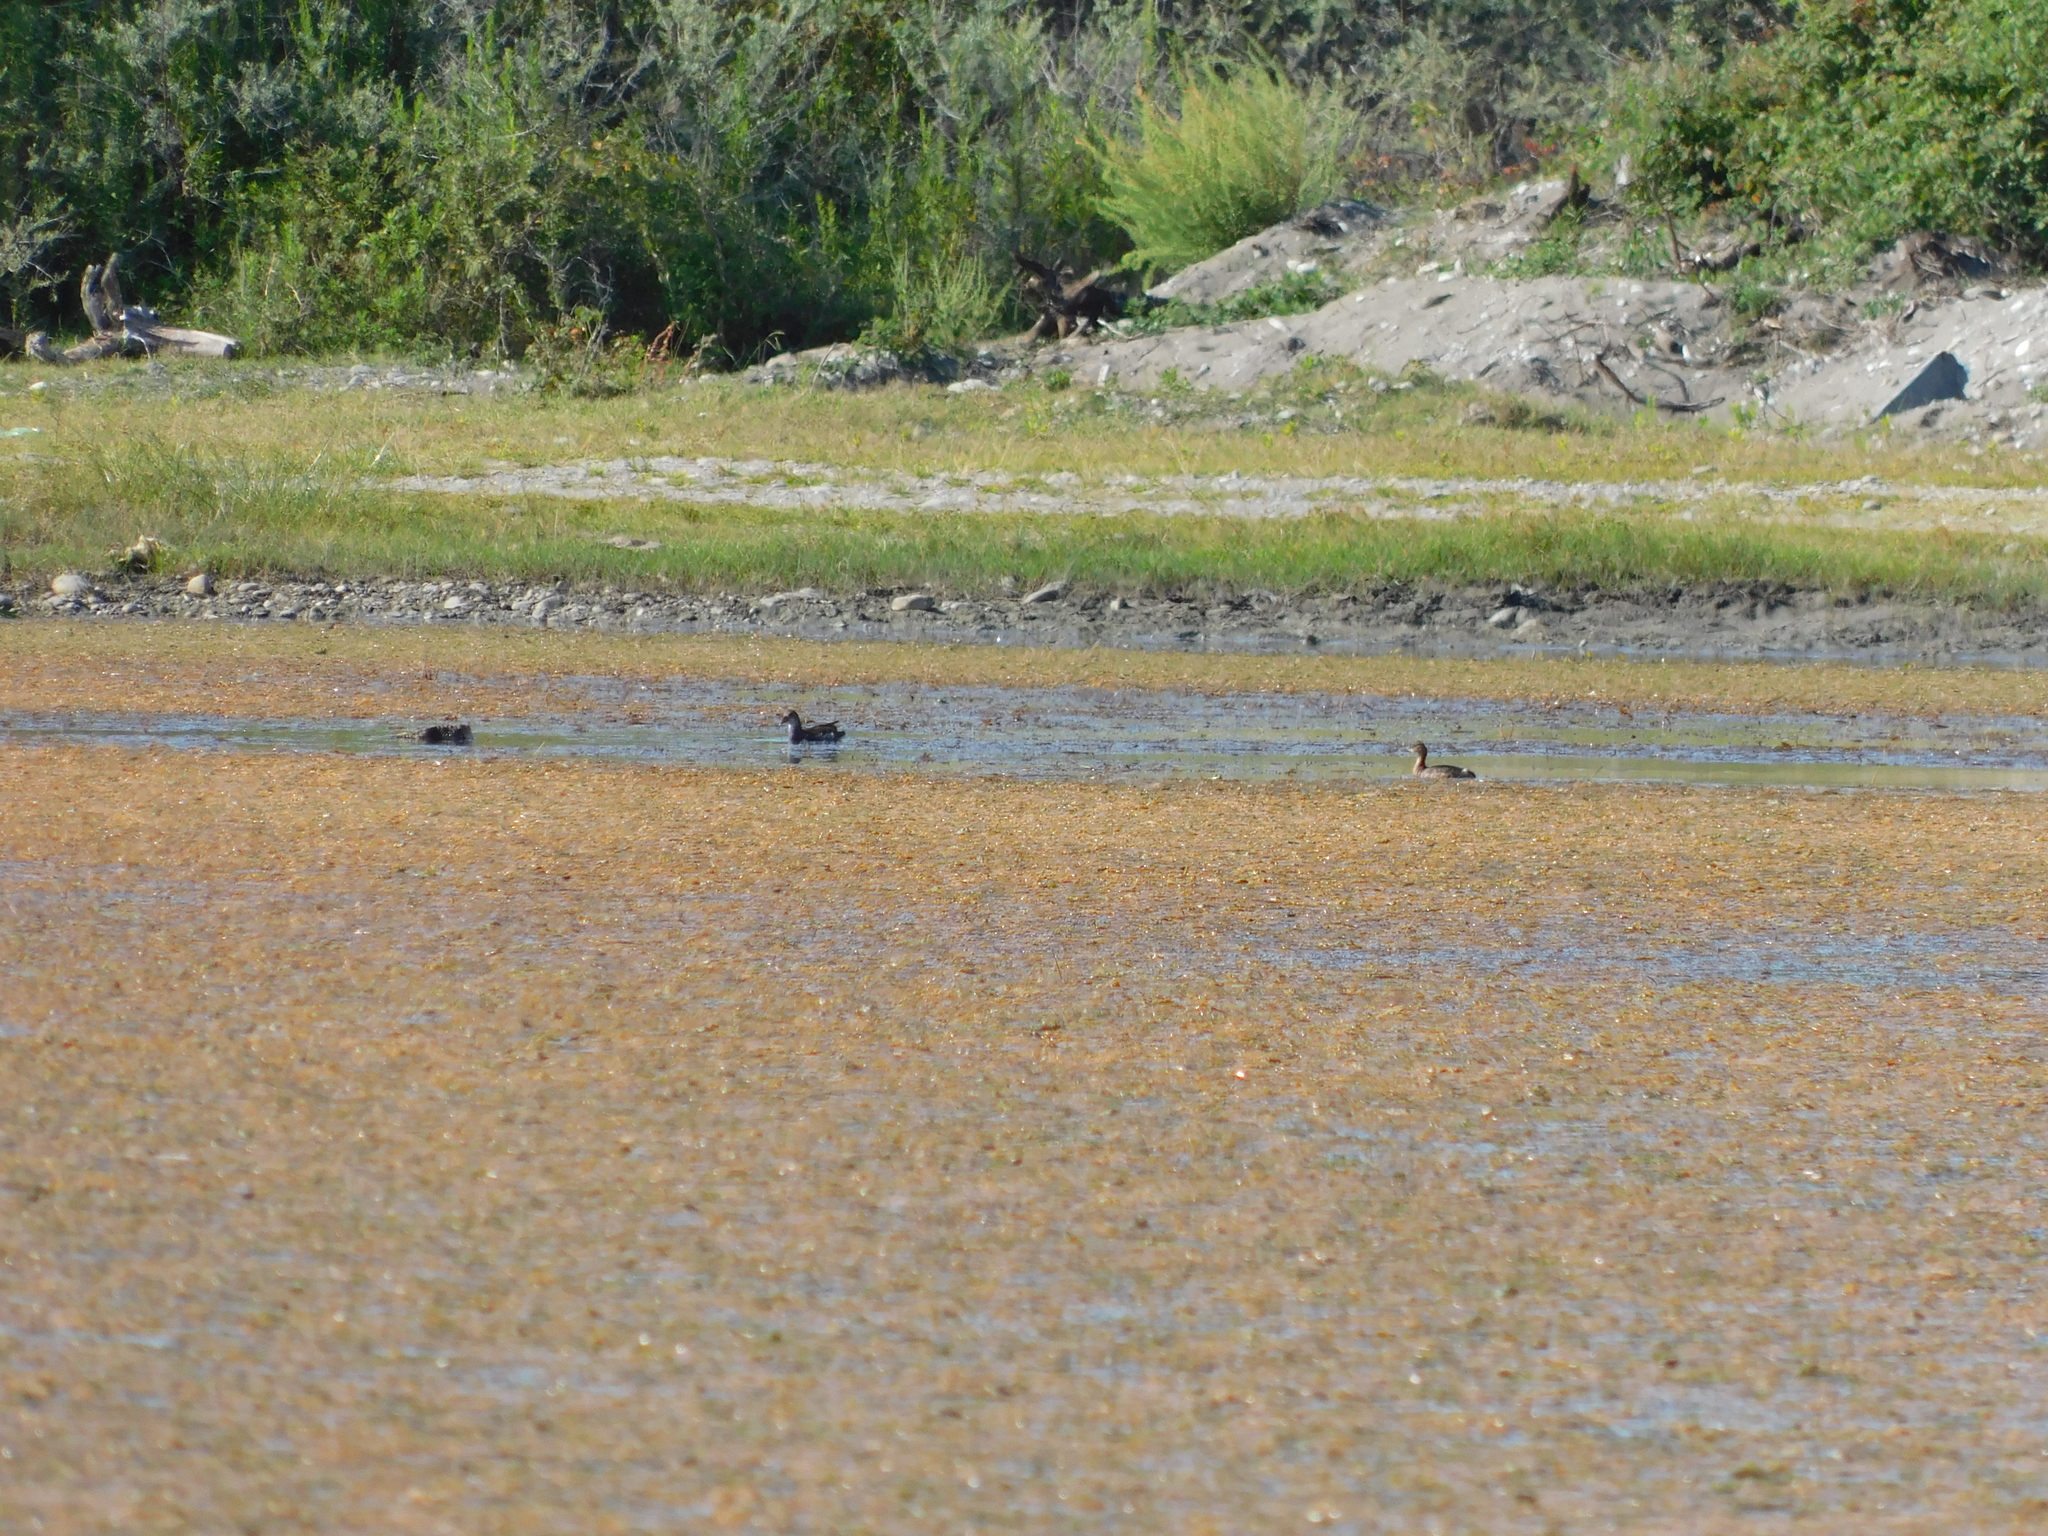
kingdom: Animalia
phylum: Chordata
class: Aves
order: Podicipediformes
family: Podicipedidae
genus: Tachybaptus
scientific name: Tachybaptus ruficollis
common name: Little grebe
